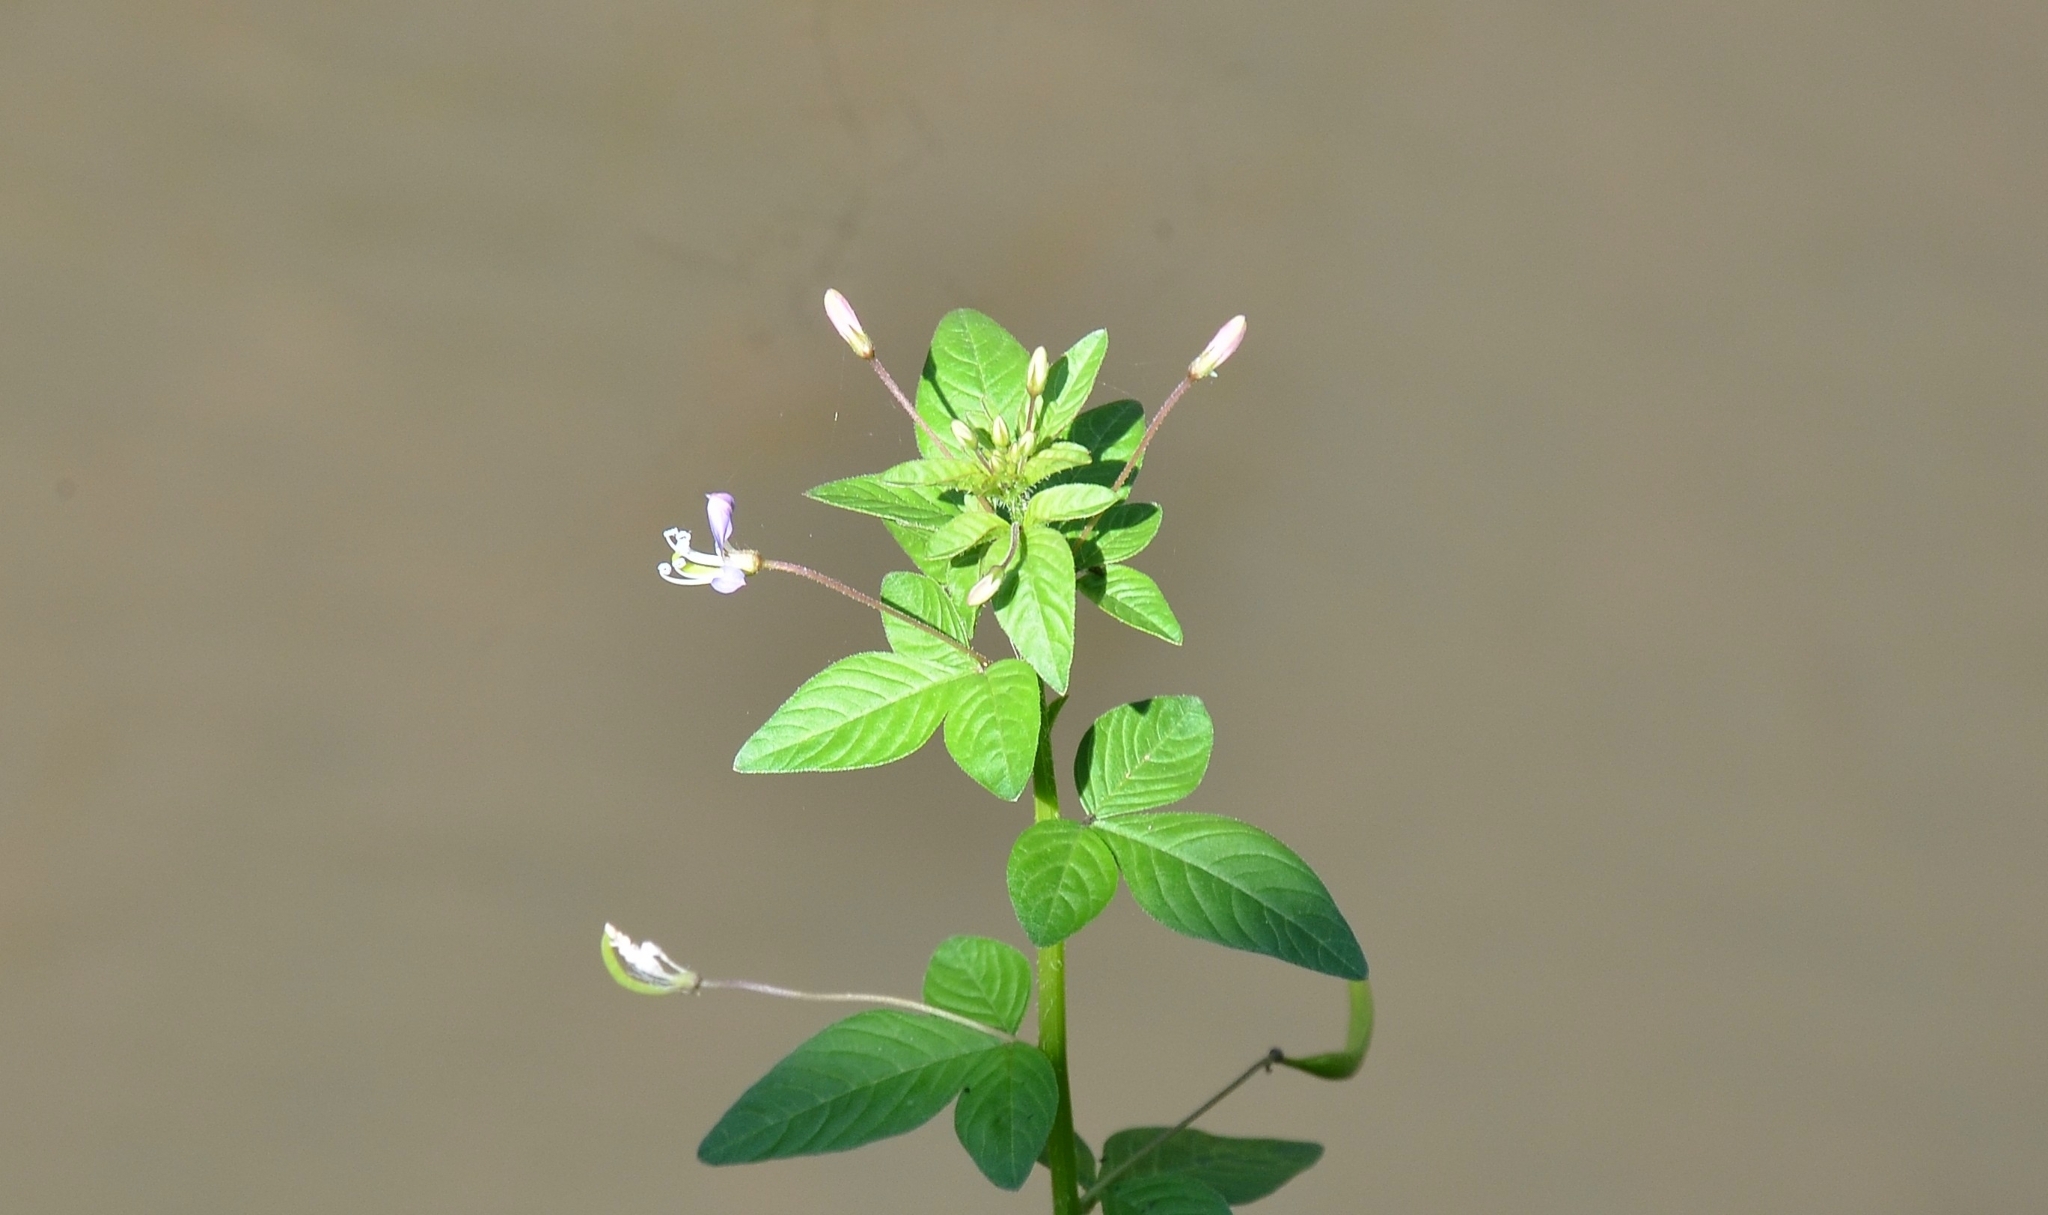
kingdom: Plantae
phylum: Tracheophyta
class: Magnoliopsida
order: Brassicales
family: Cleomaceae
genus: Sieruela
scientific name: Sieruela rutidosperma
